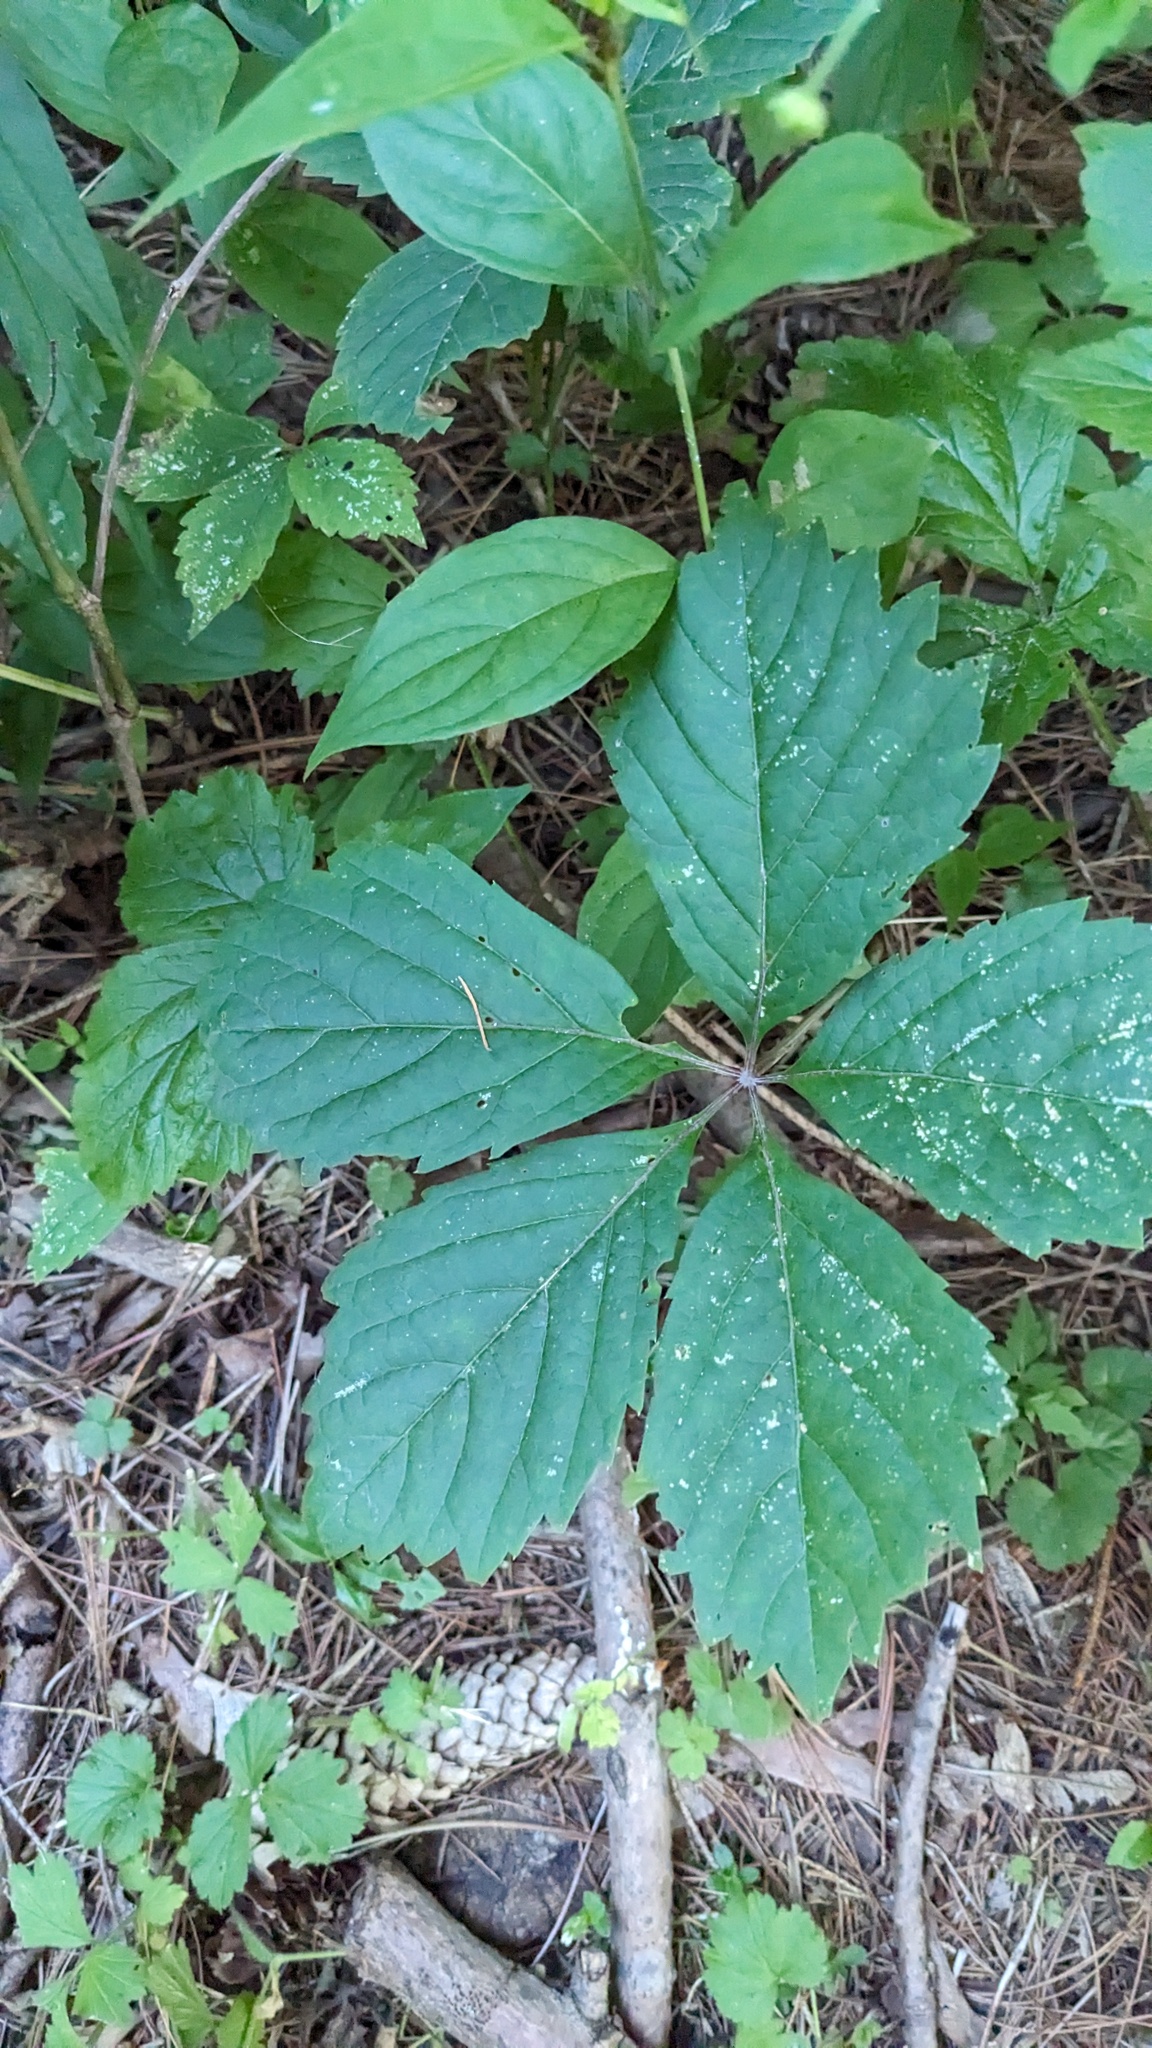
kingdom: Plantae
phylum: Tracheophyta
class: Magnoliopsida
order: Vitales
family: Vitaceae
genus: Parthenocissus
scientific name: Parthenocissus inserta
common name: False virginia-creeper
